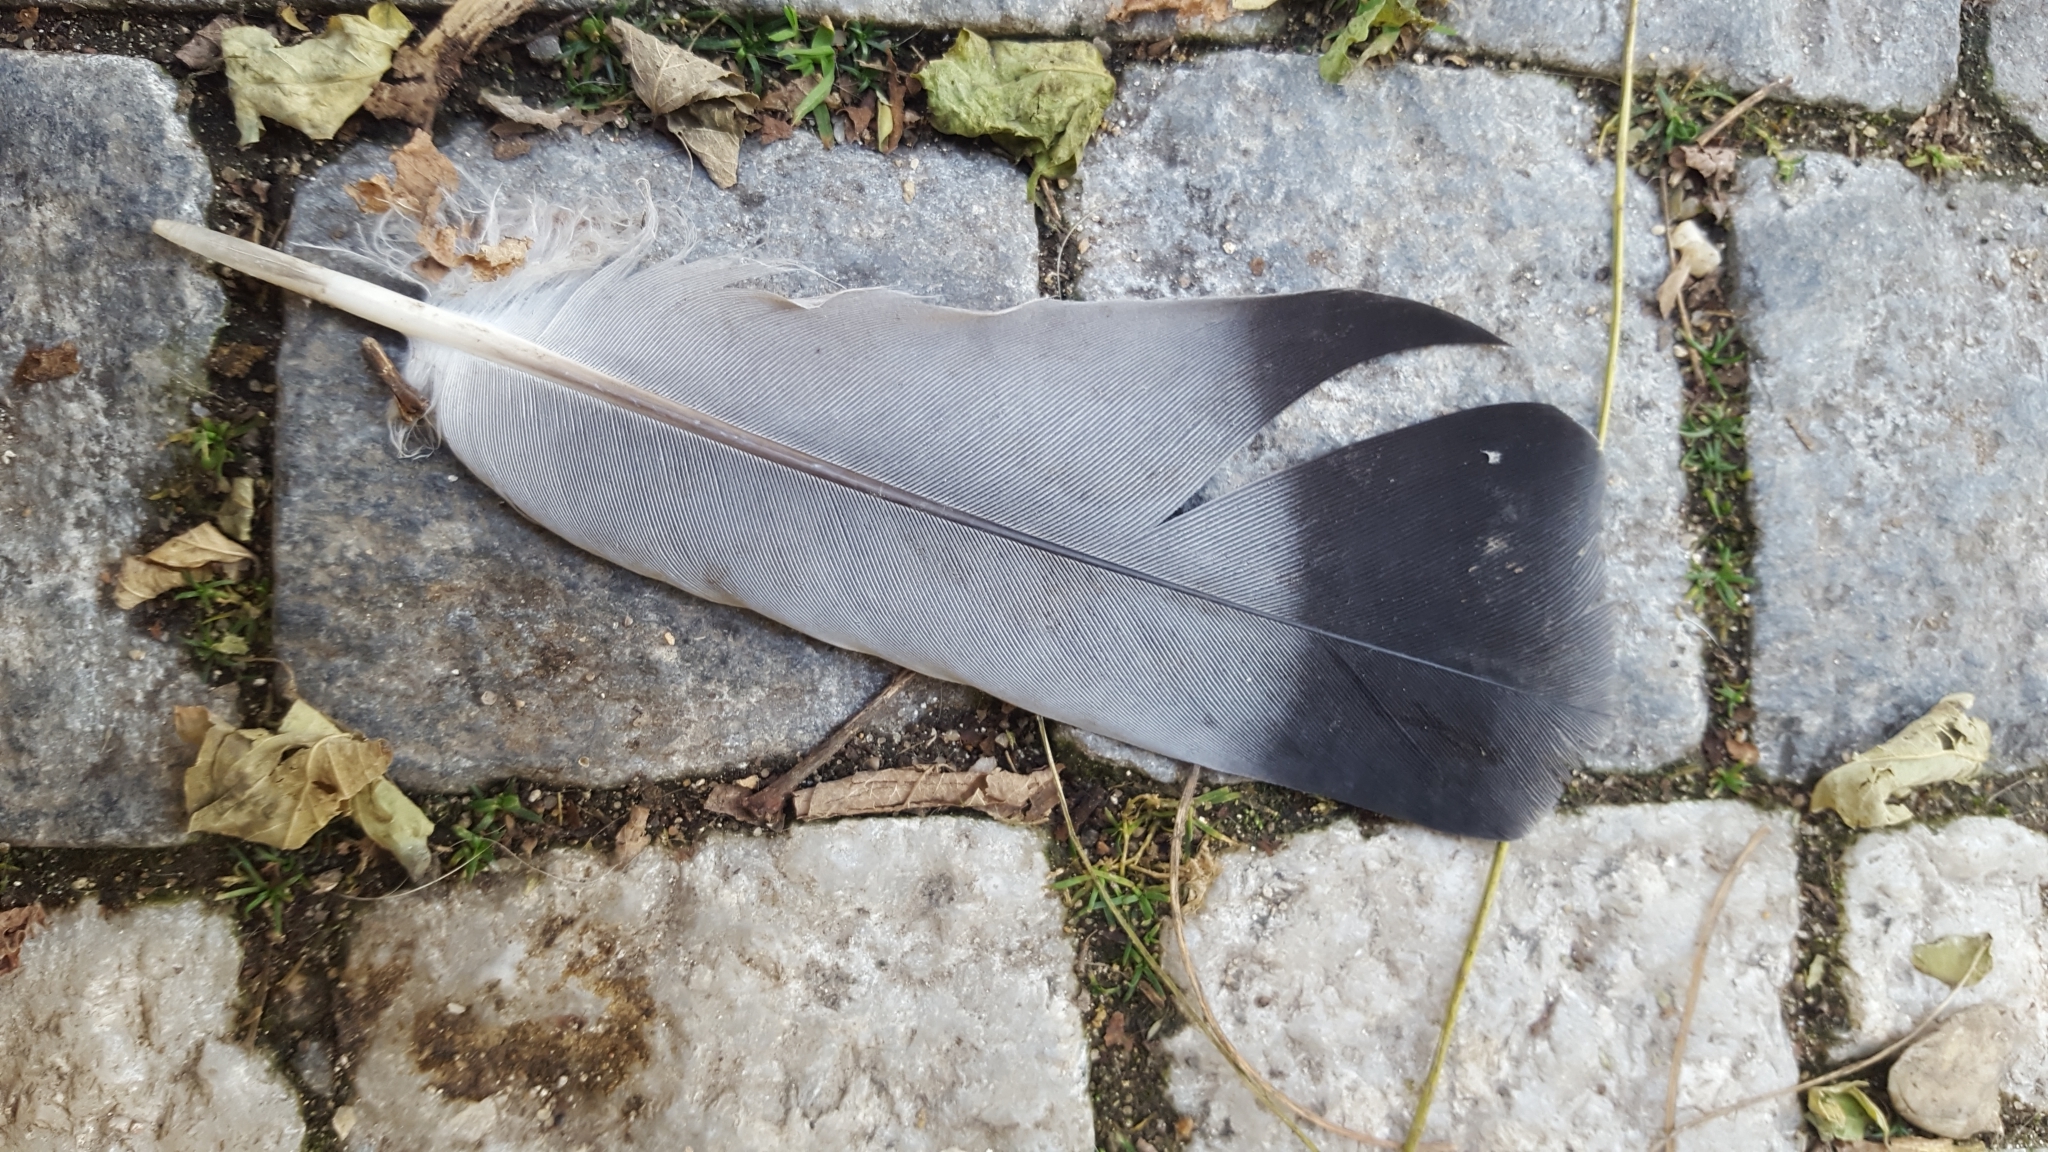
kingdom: Animalia
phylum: Chordata
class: Aves
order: Columbiformes
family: Columbidae
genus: Columba
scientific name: Columba livia
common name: Rock pigeon
